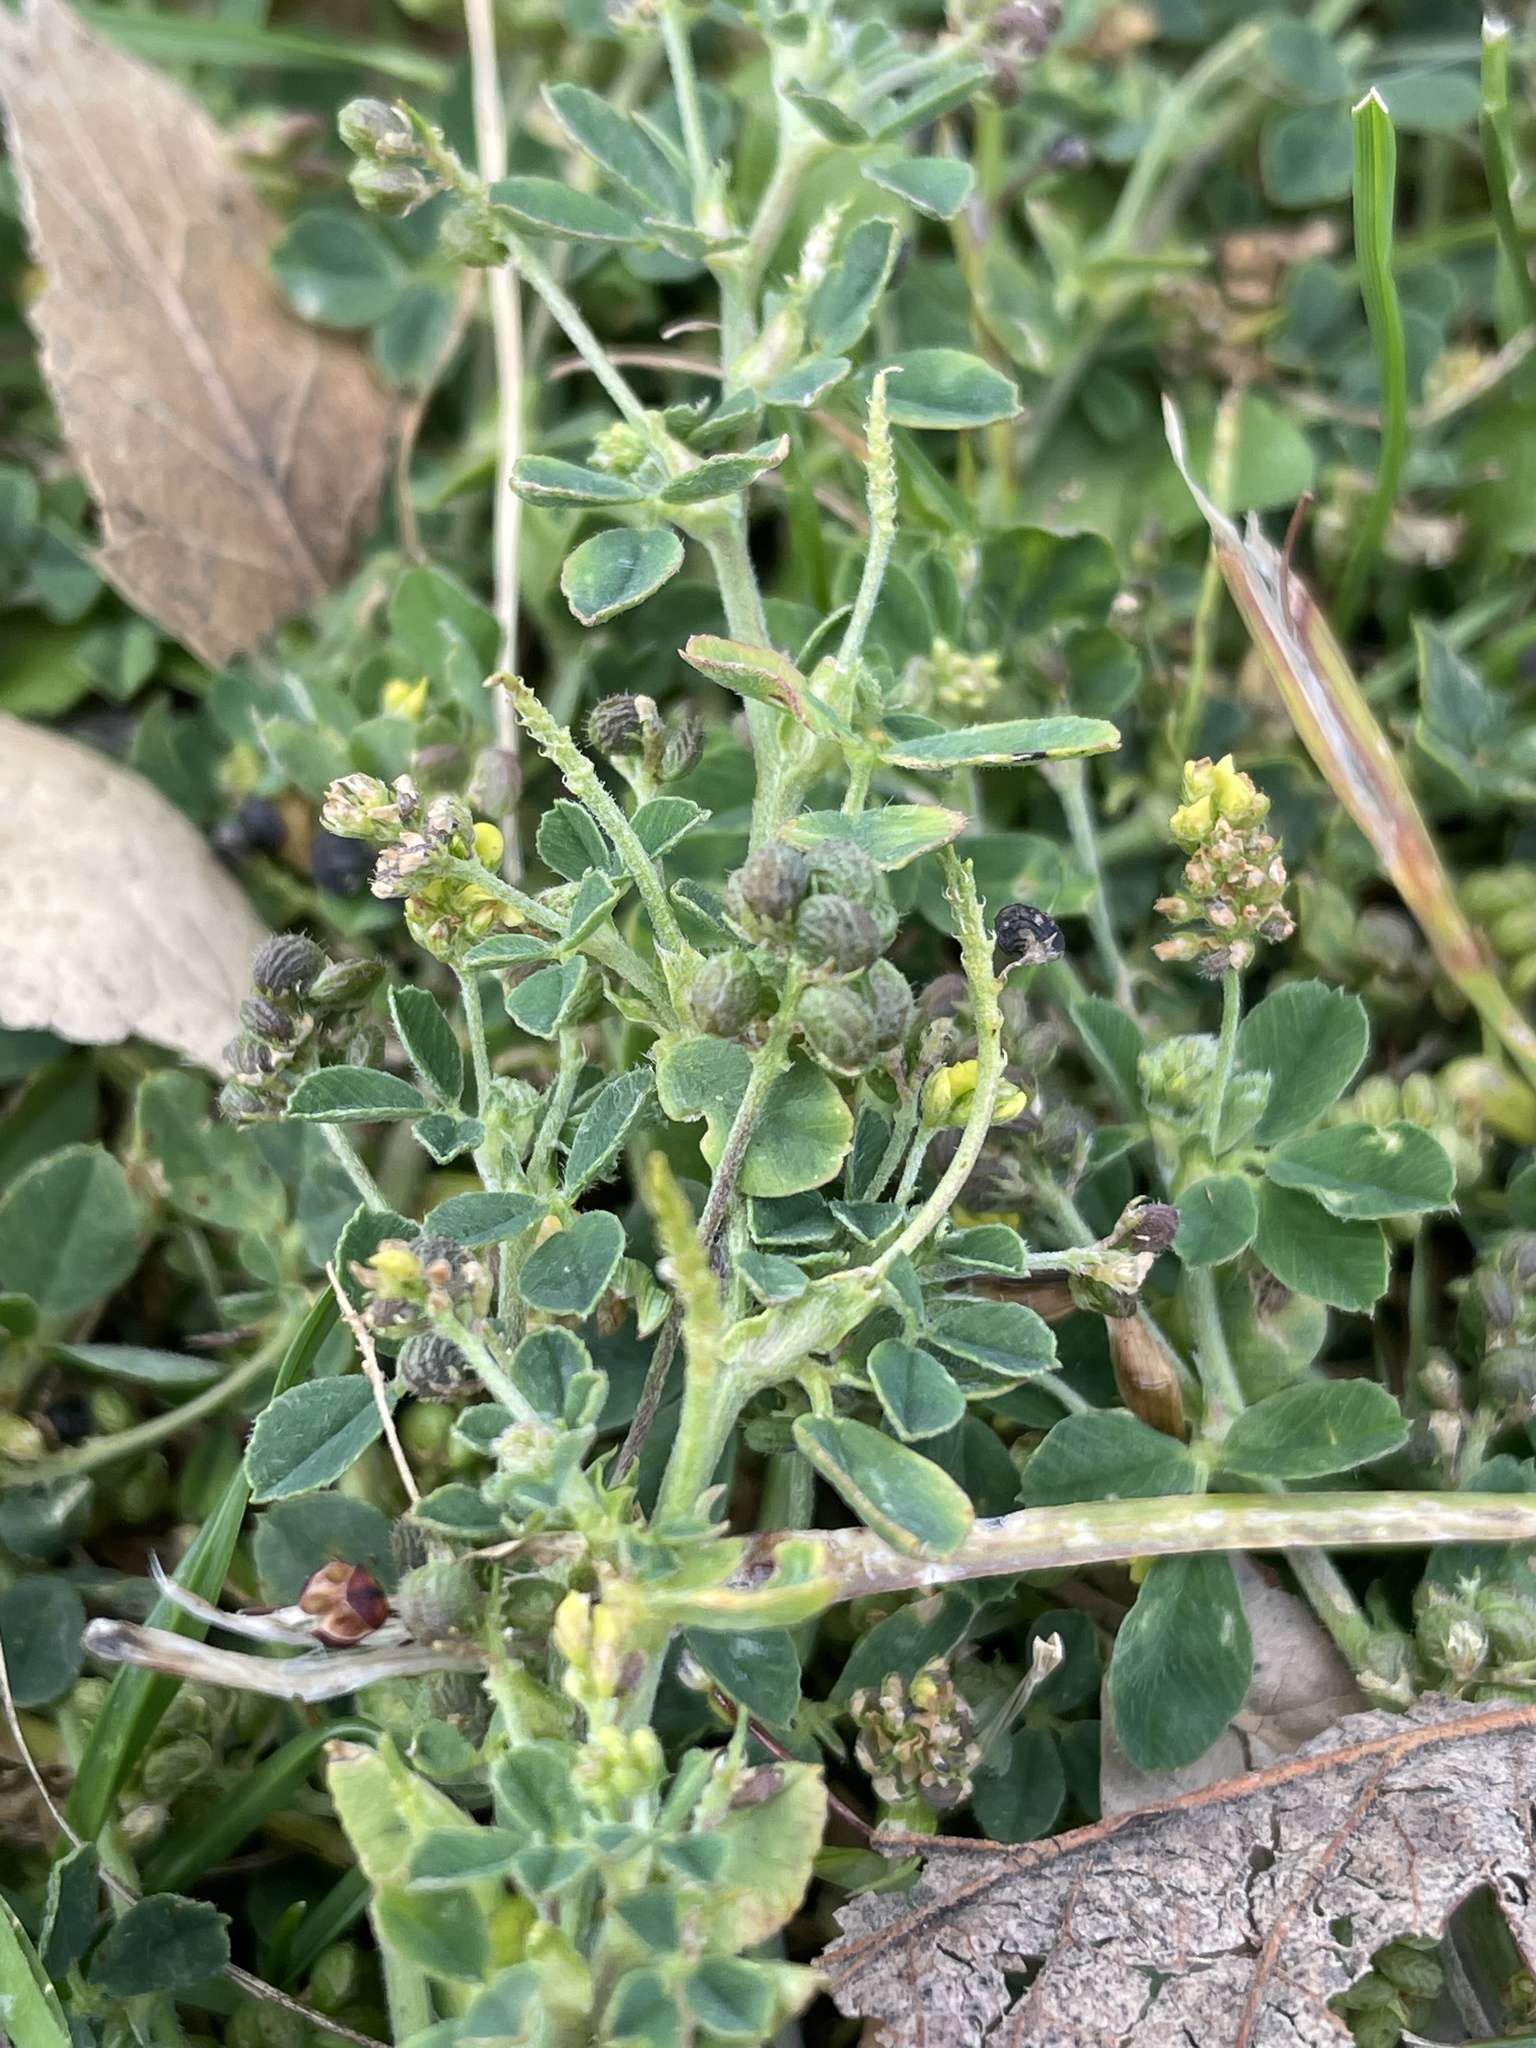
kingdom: Plantae
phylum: Tracheophyta
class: Magnoliopsida
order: Fabales
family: Fabaceae
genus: Medicago
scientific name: Medicago lupulina
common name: Black medick
